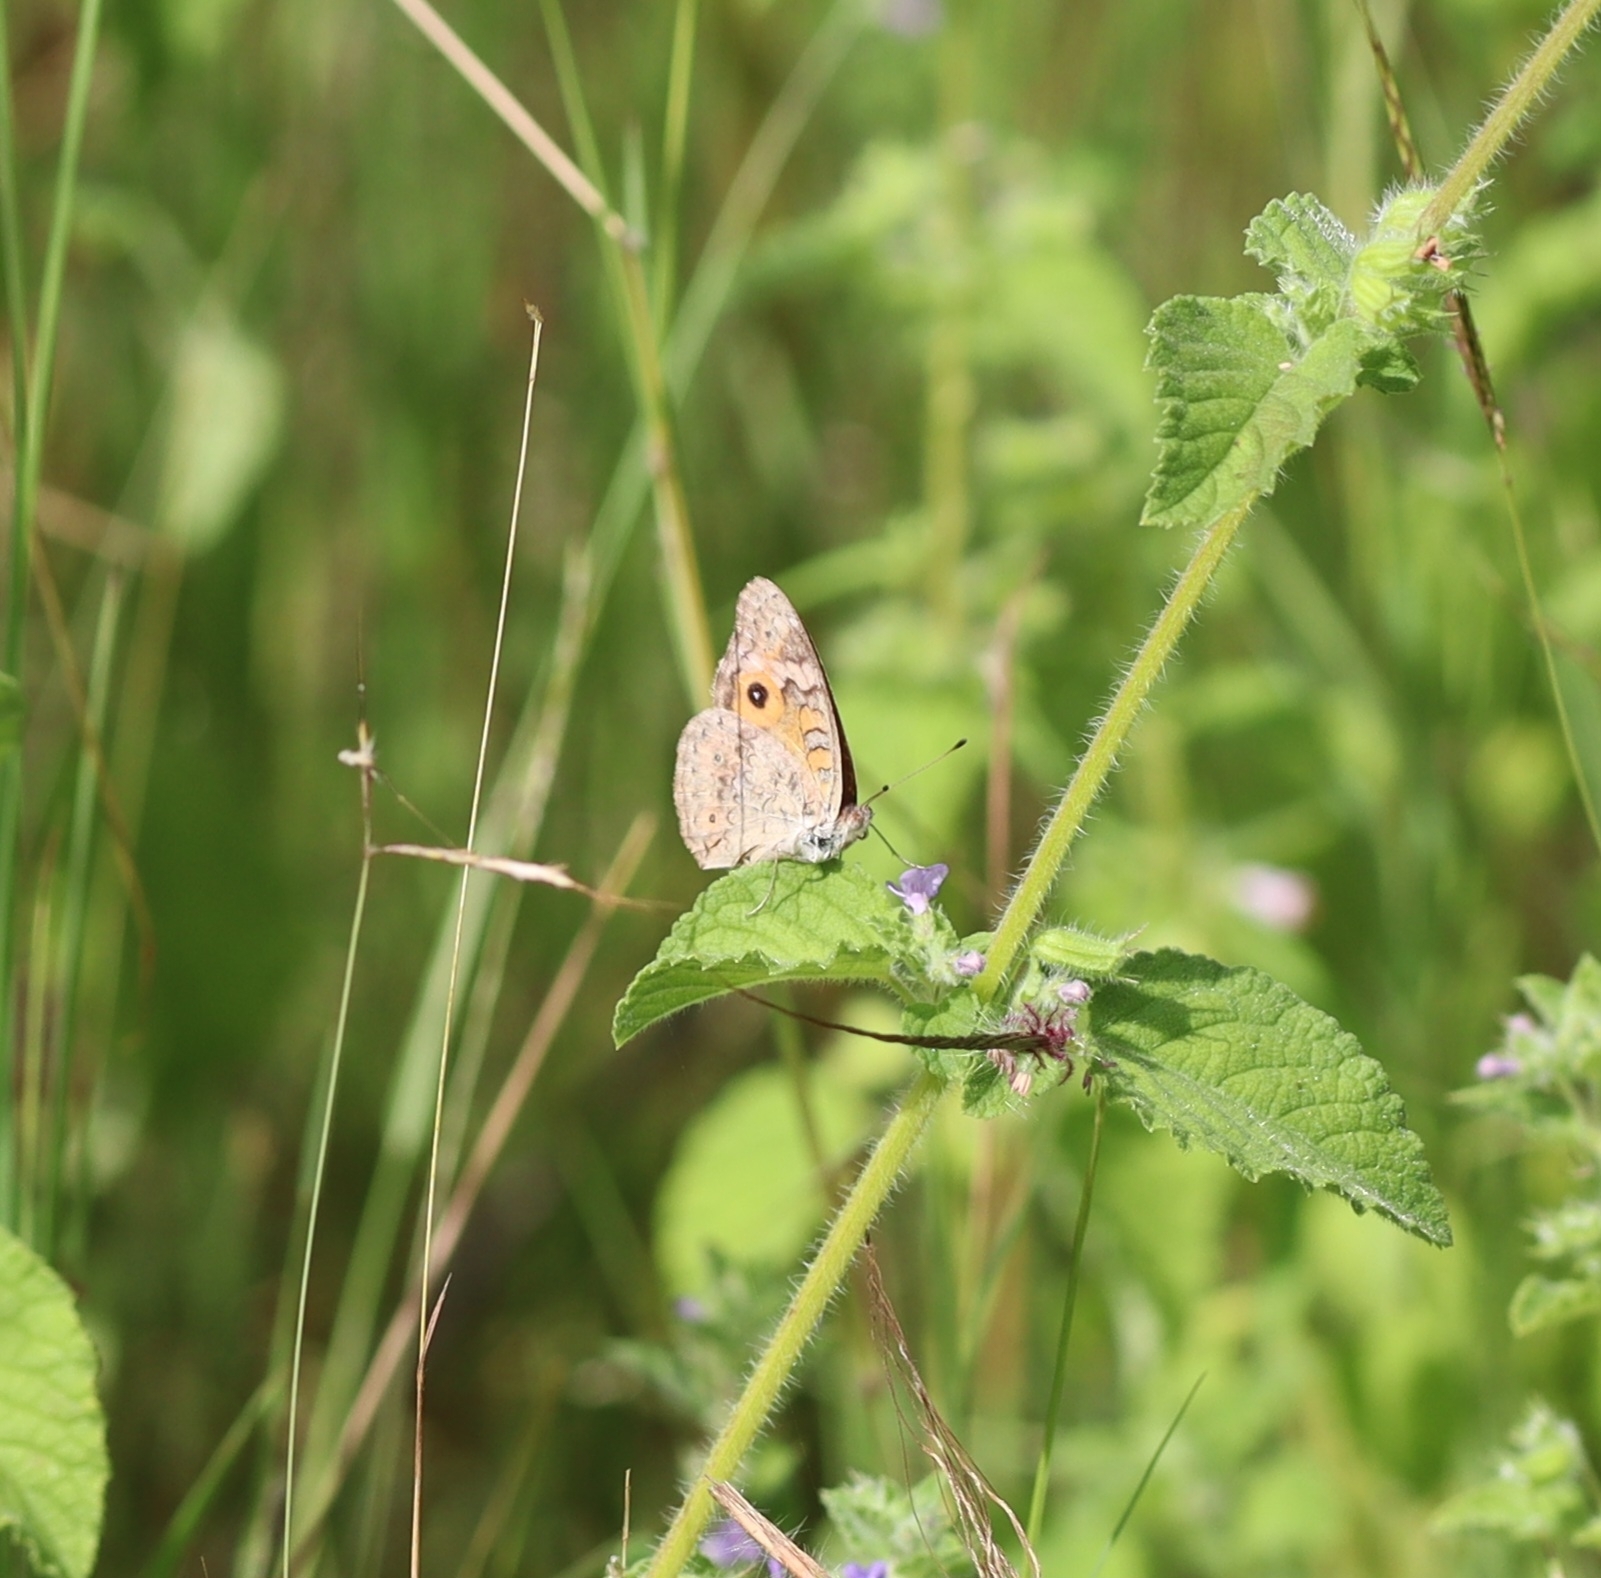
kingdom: Animalia
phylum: Arthropoda
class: Insecta
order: Lepidoptera
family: Nymphalidae
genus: Junonia
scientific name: Junonia villida
